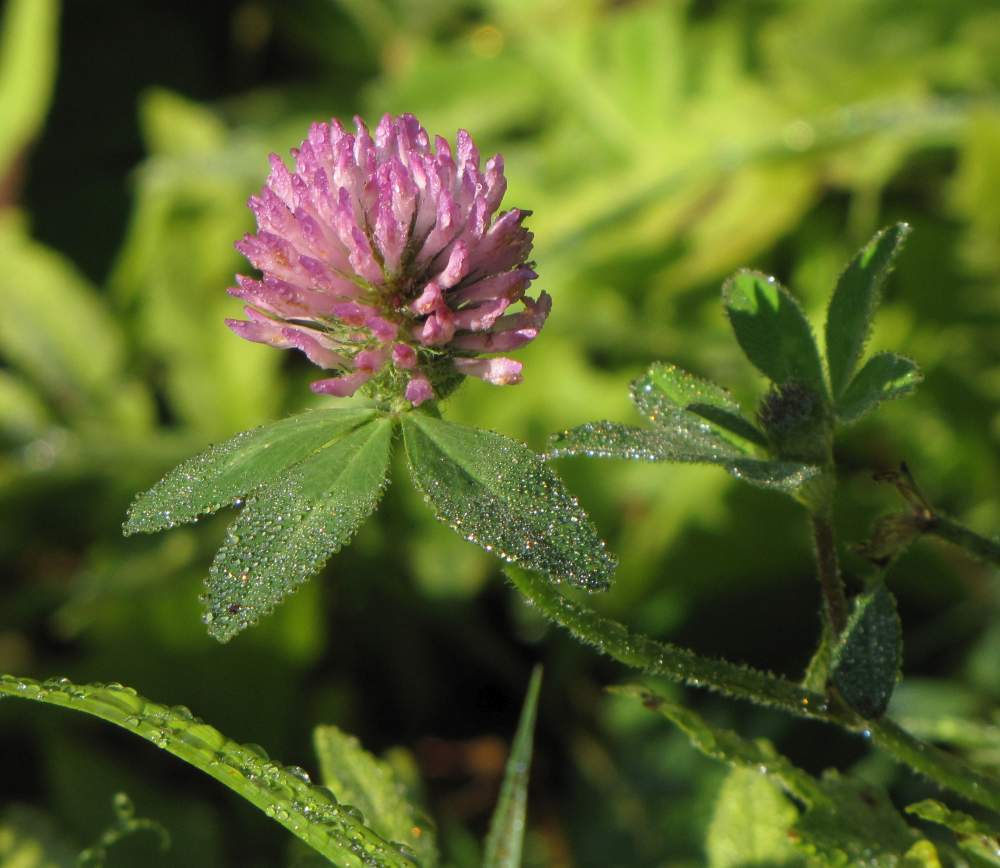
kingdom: Plantae
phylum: Tracheophyta
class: Magnoliopsida
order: Fabales
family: Fabaceae
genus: Trifolium
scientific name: Trifolium pratense
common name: Red clover
